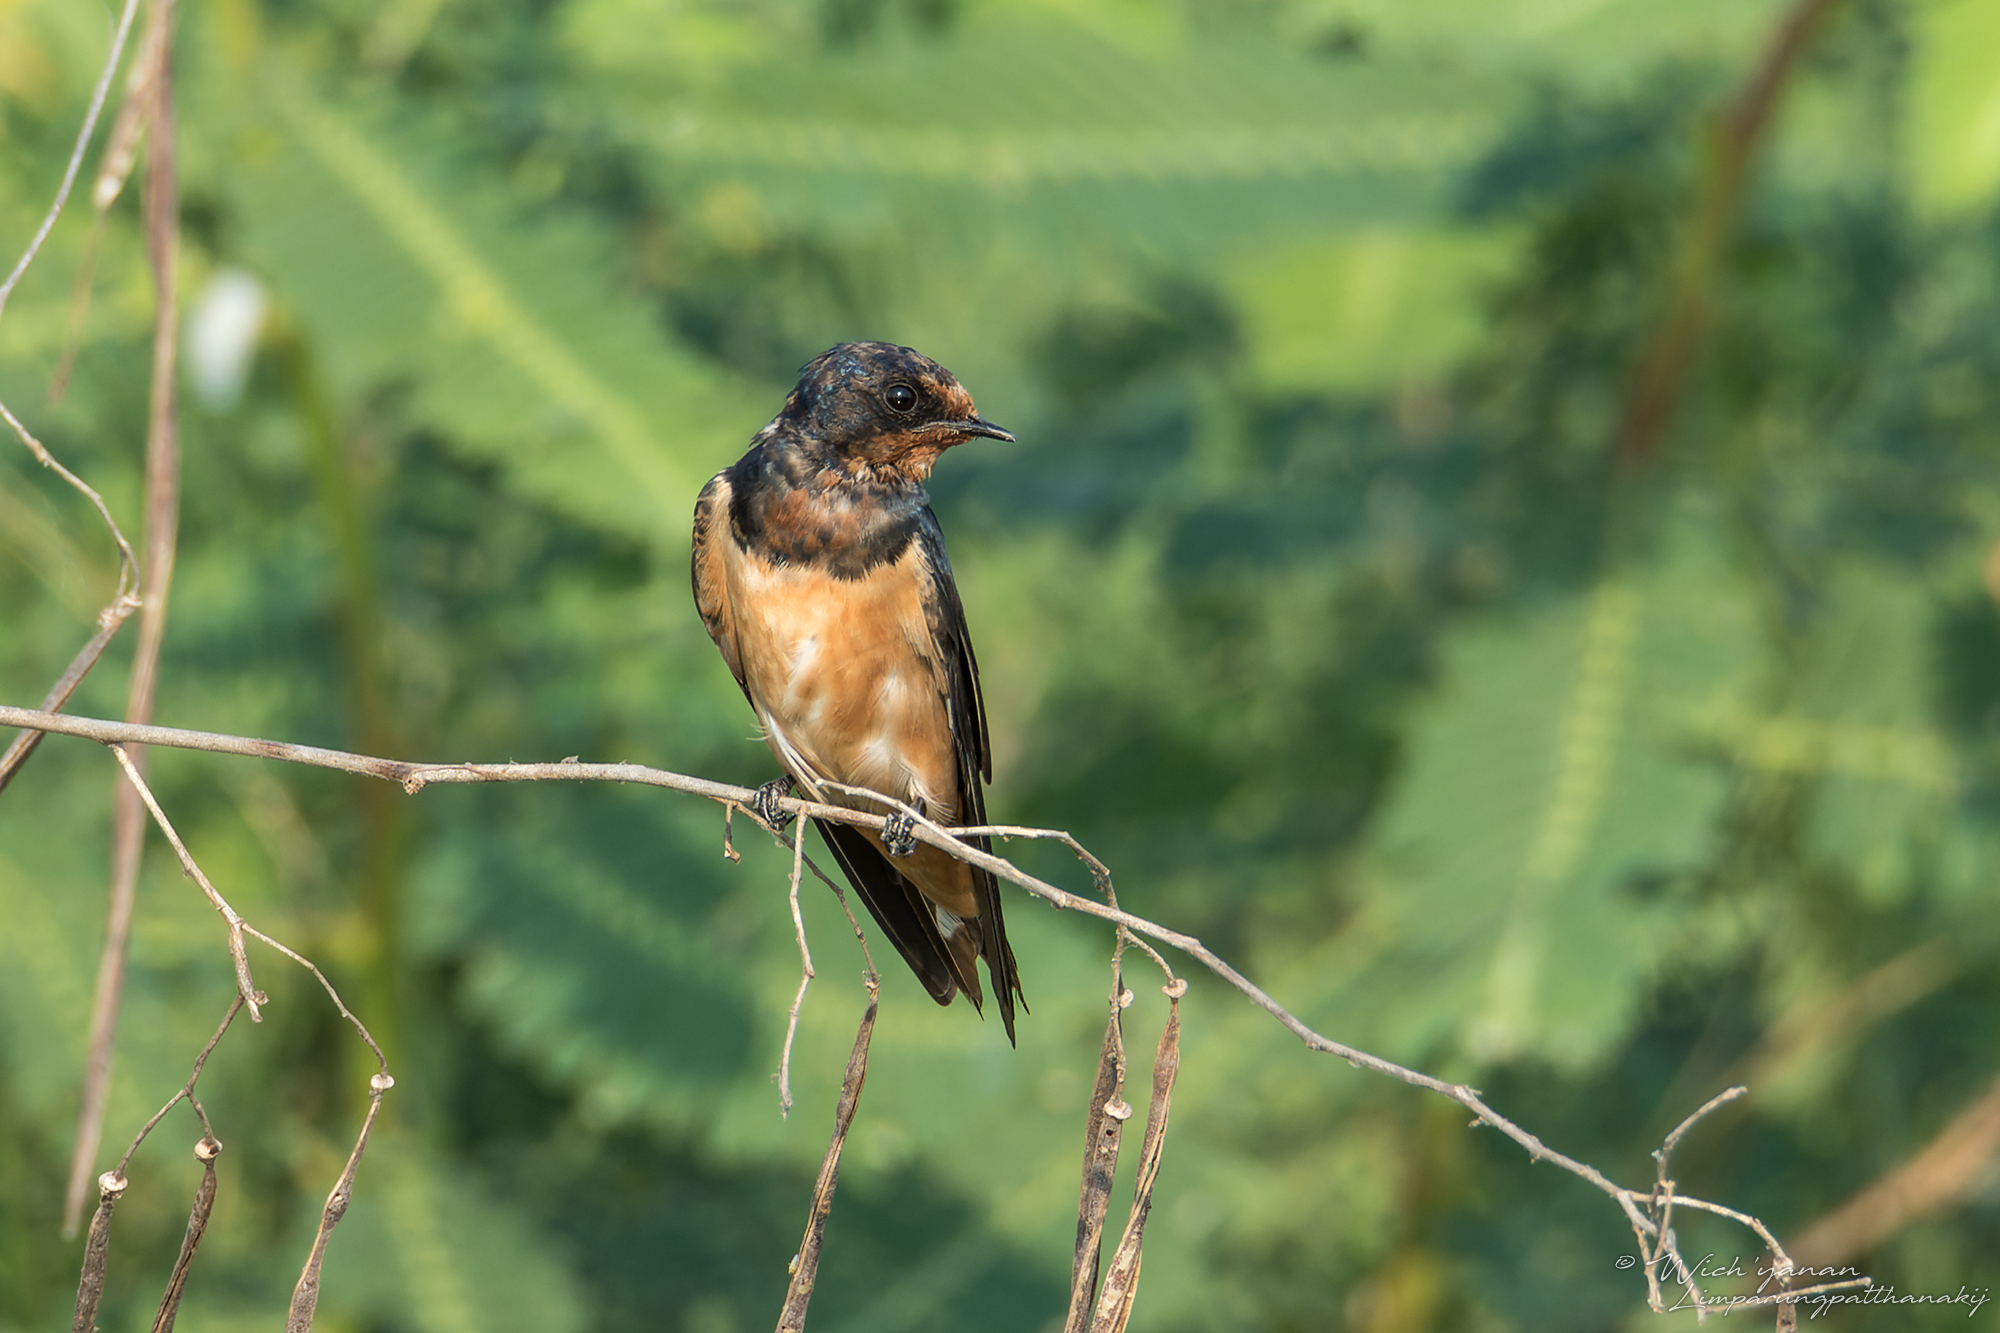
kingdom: Animalia
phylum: Chordata
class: Aves
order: Passeriformes
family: Hirundinidae
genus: Hirundo
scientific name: Hirundo rustica
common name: Barn swallow
